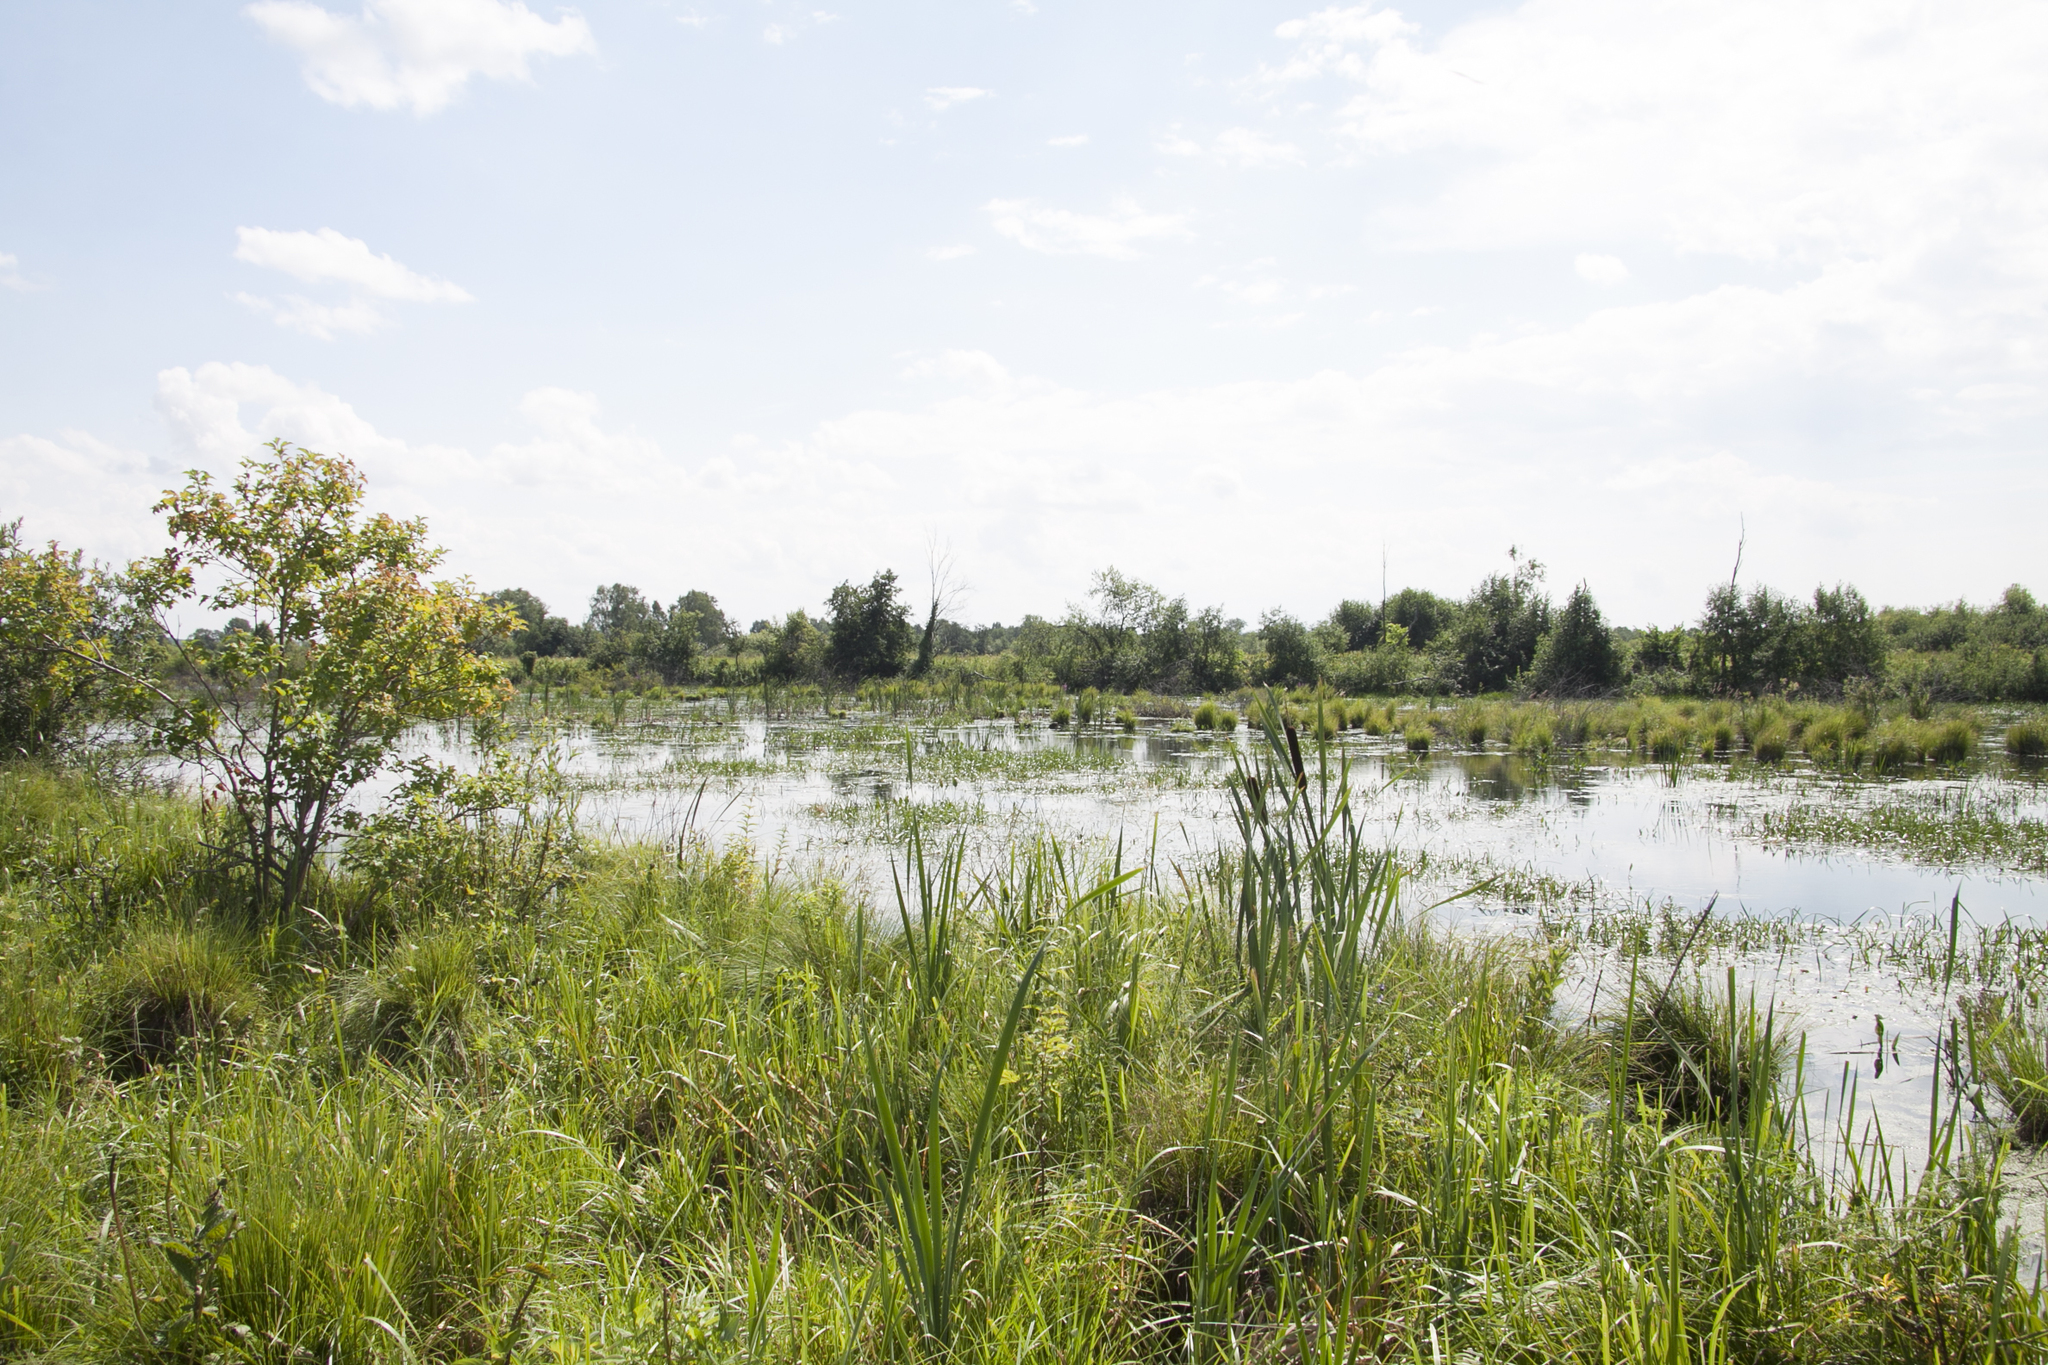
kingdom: Plantae
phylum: Tracheophyta
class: Liliopsida
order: Poales
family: Typhaceae
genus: Typha
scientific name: Typha latifolia
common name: Broadleaf cattail
